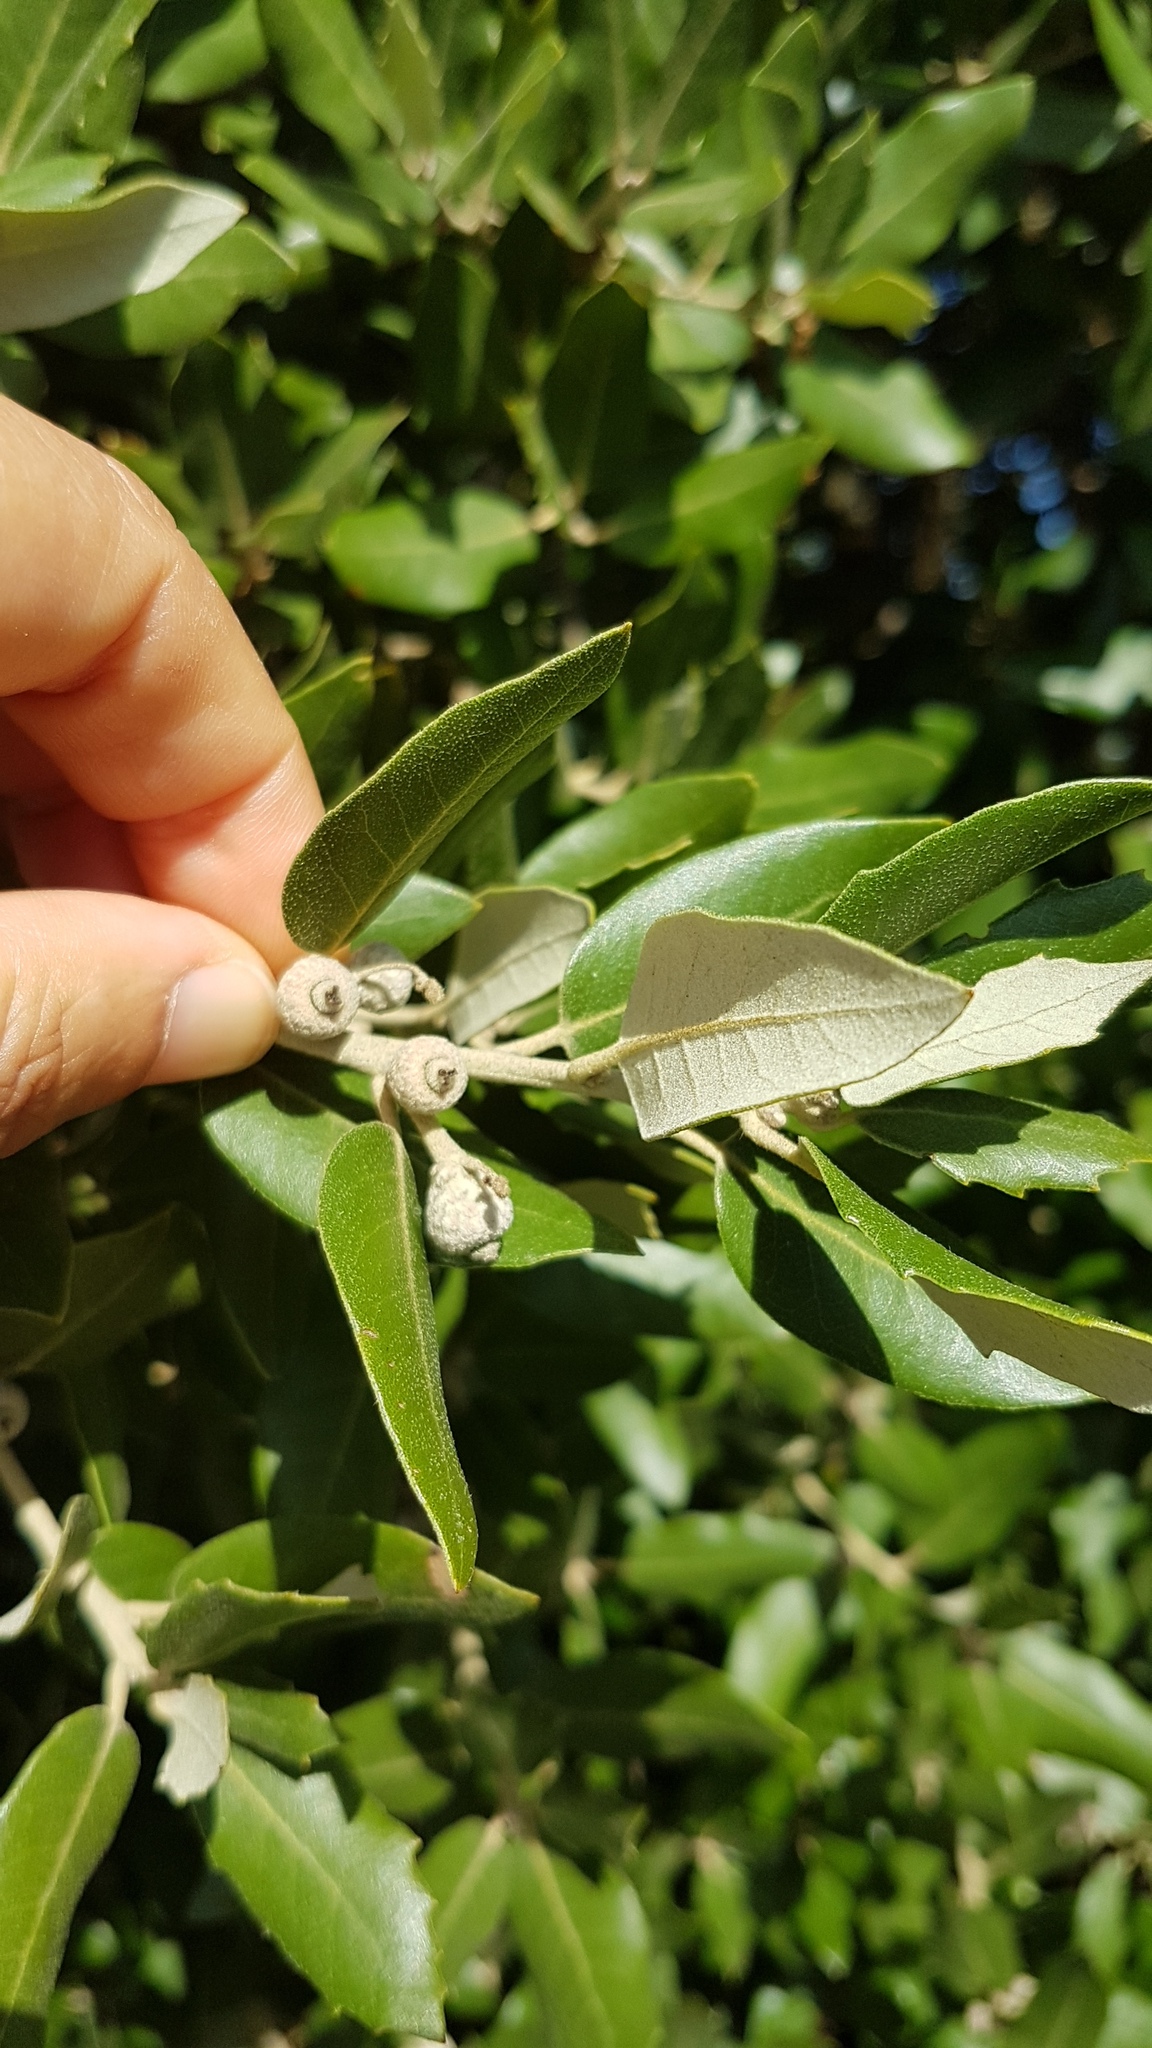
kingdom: Plantae
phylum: Tracheophyta
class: Magnoliopsida
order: Fagales
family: Fagaceae
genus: Quercus
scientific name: Quercus ilex
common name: Evergreen oak
